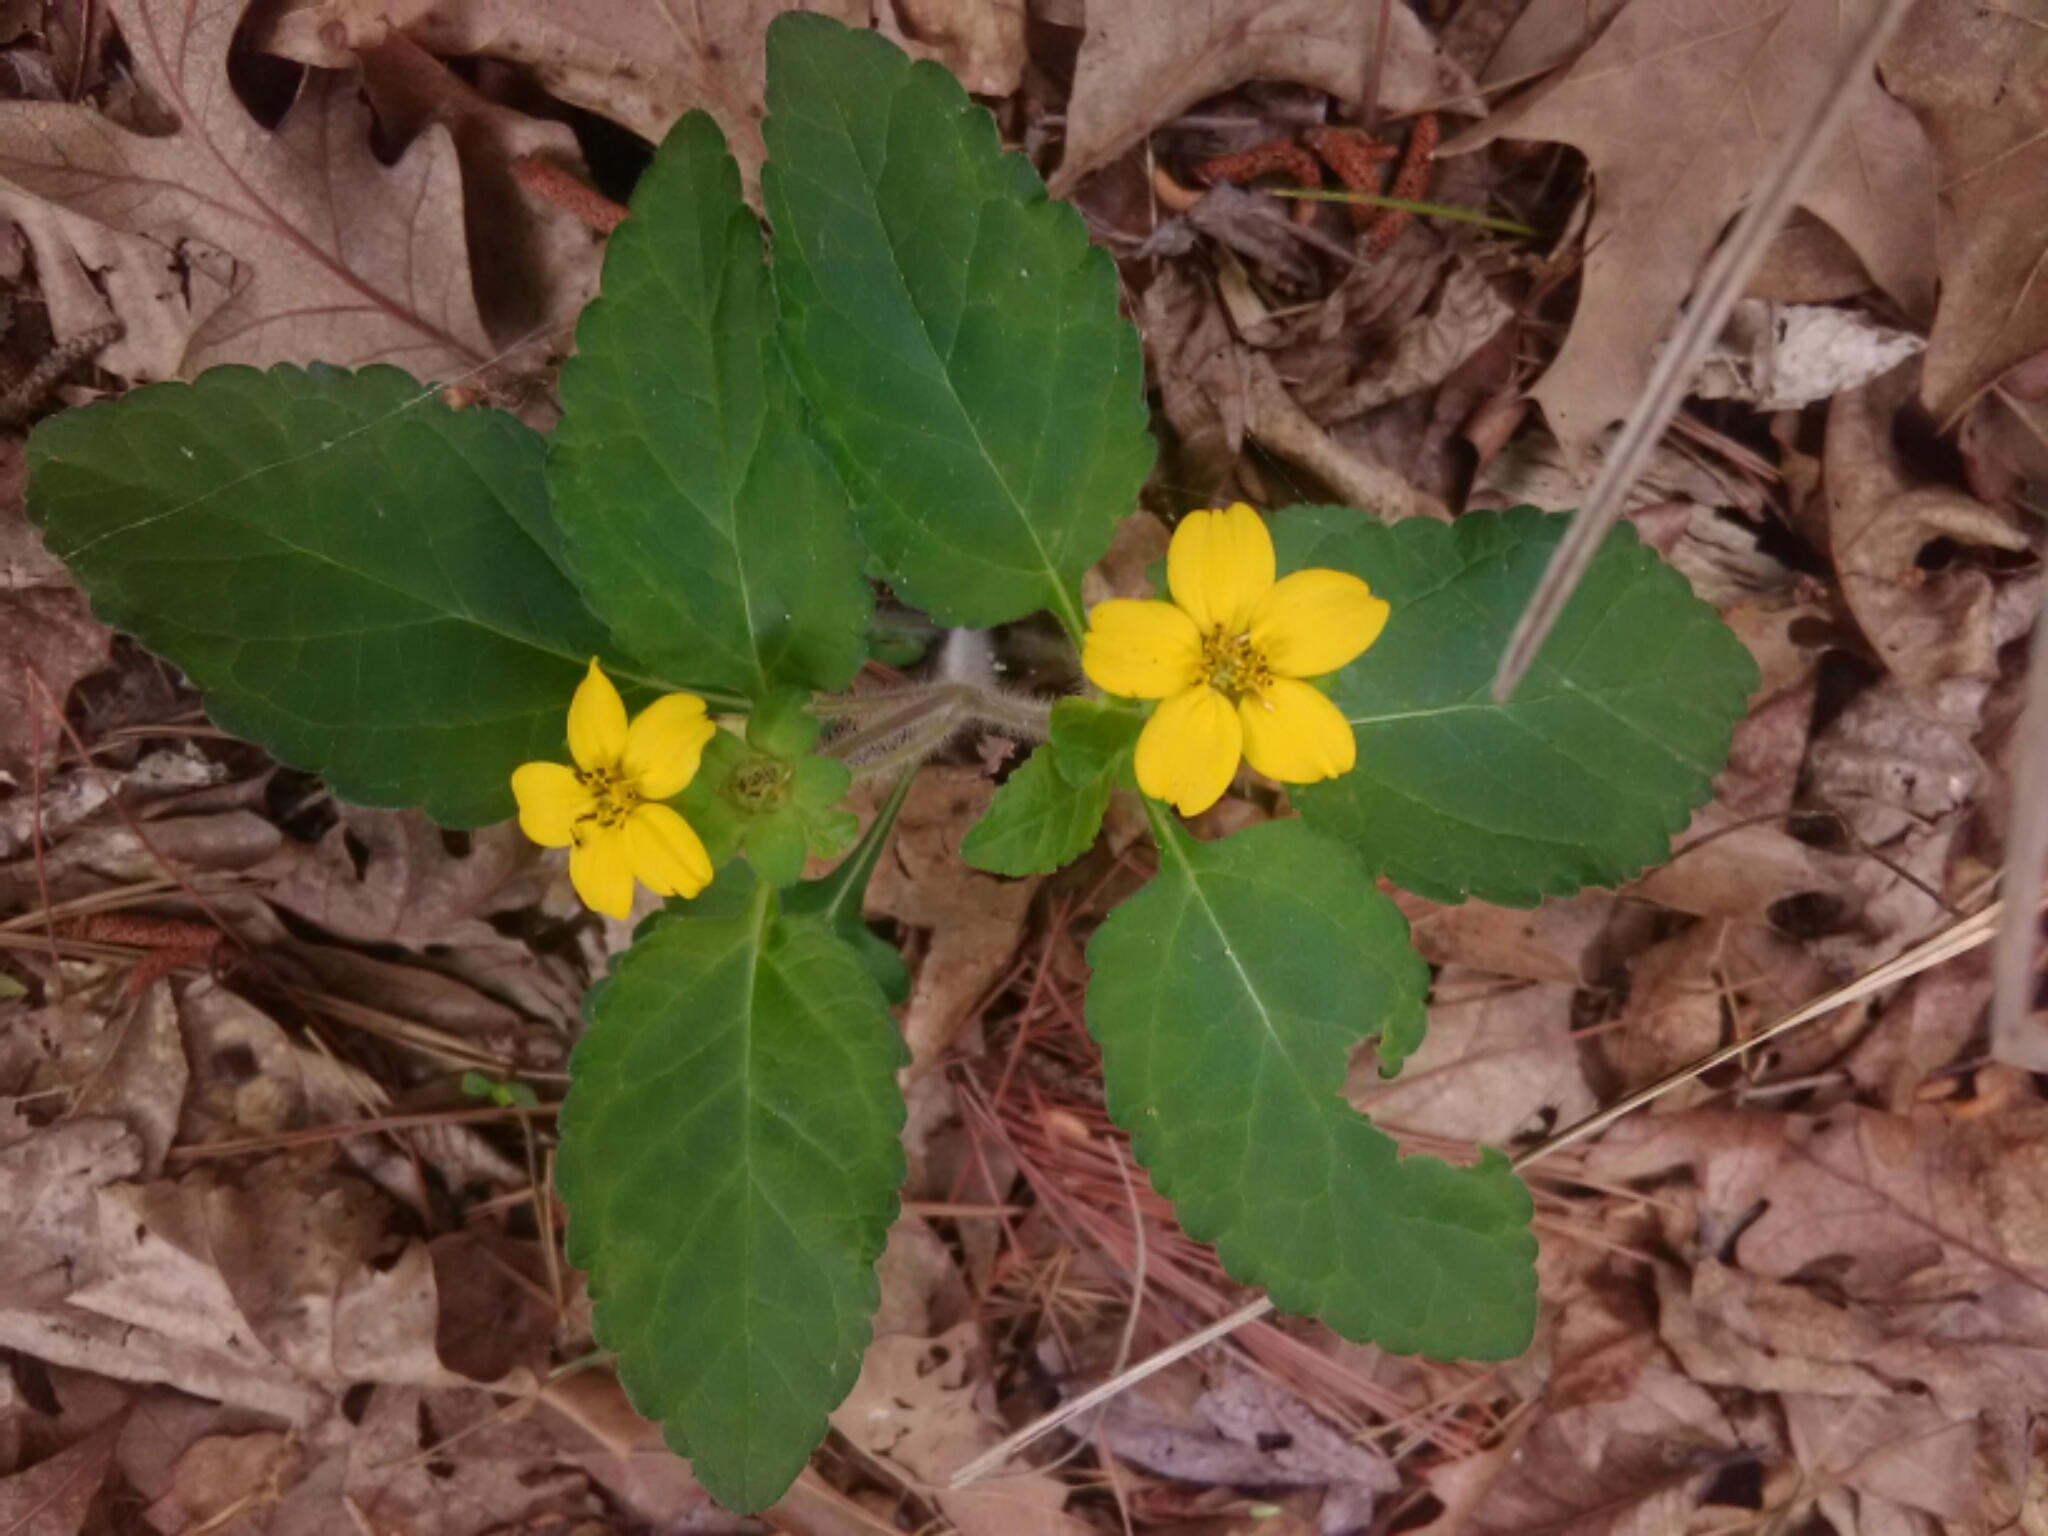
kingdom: Plantae
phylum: Tracheophyta
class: Magnoliopsida
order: Asterales
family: Asteraceae
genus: Chrysogonum
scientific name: Chrysogonum virginianum
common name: Golden-knee
